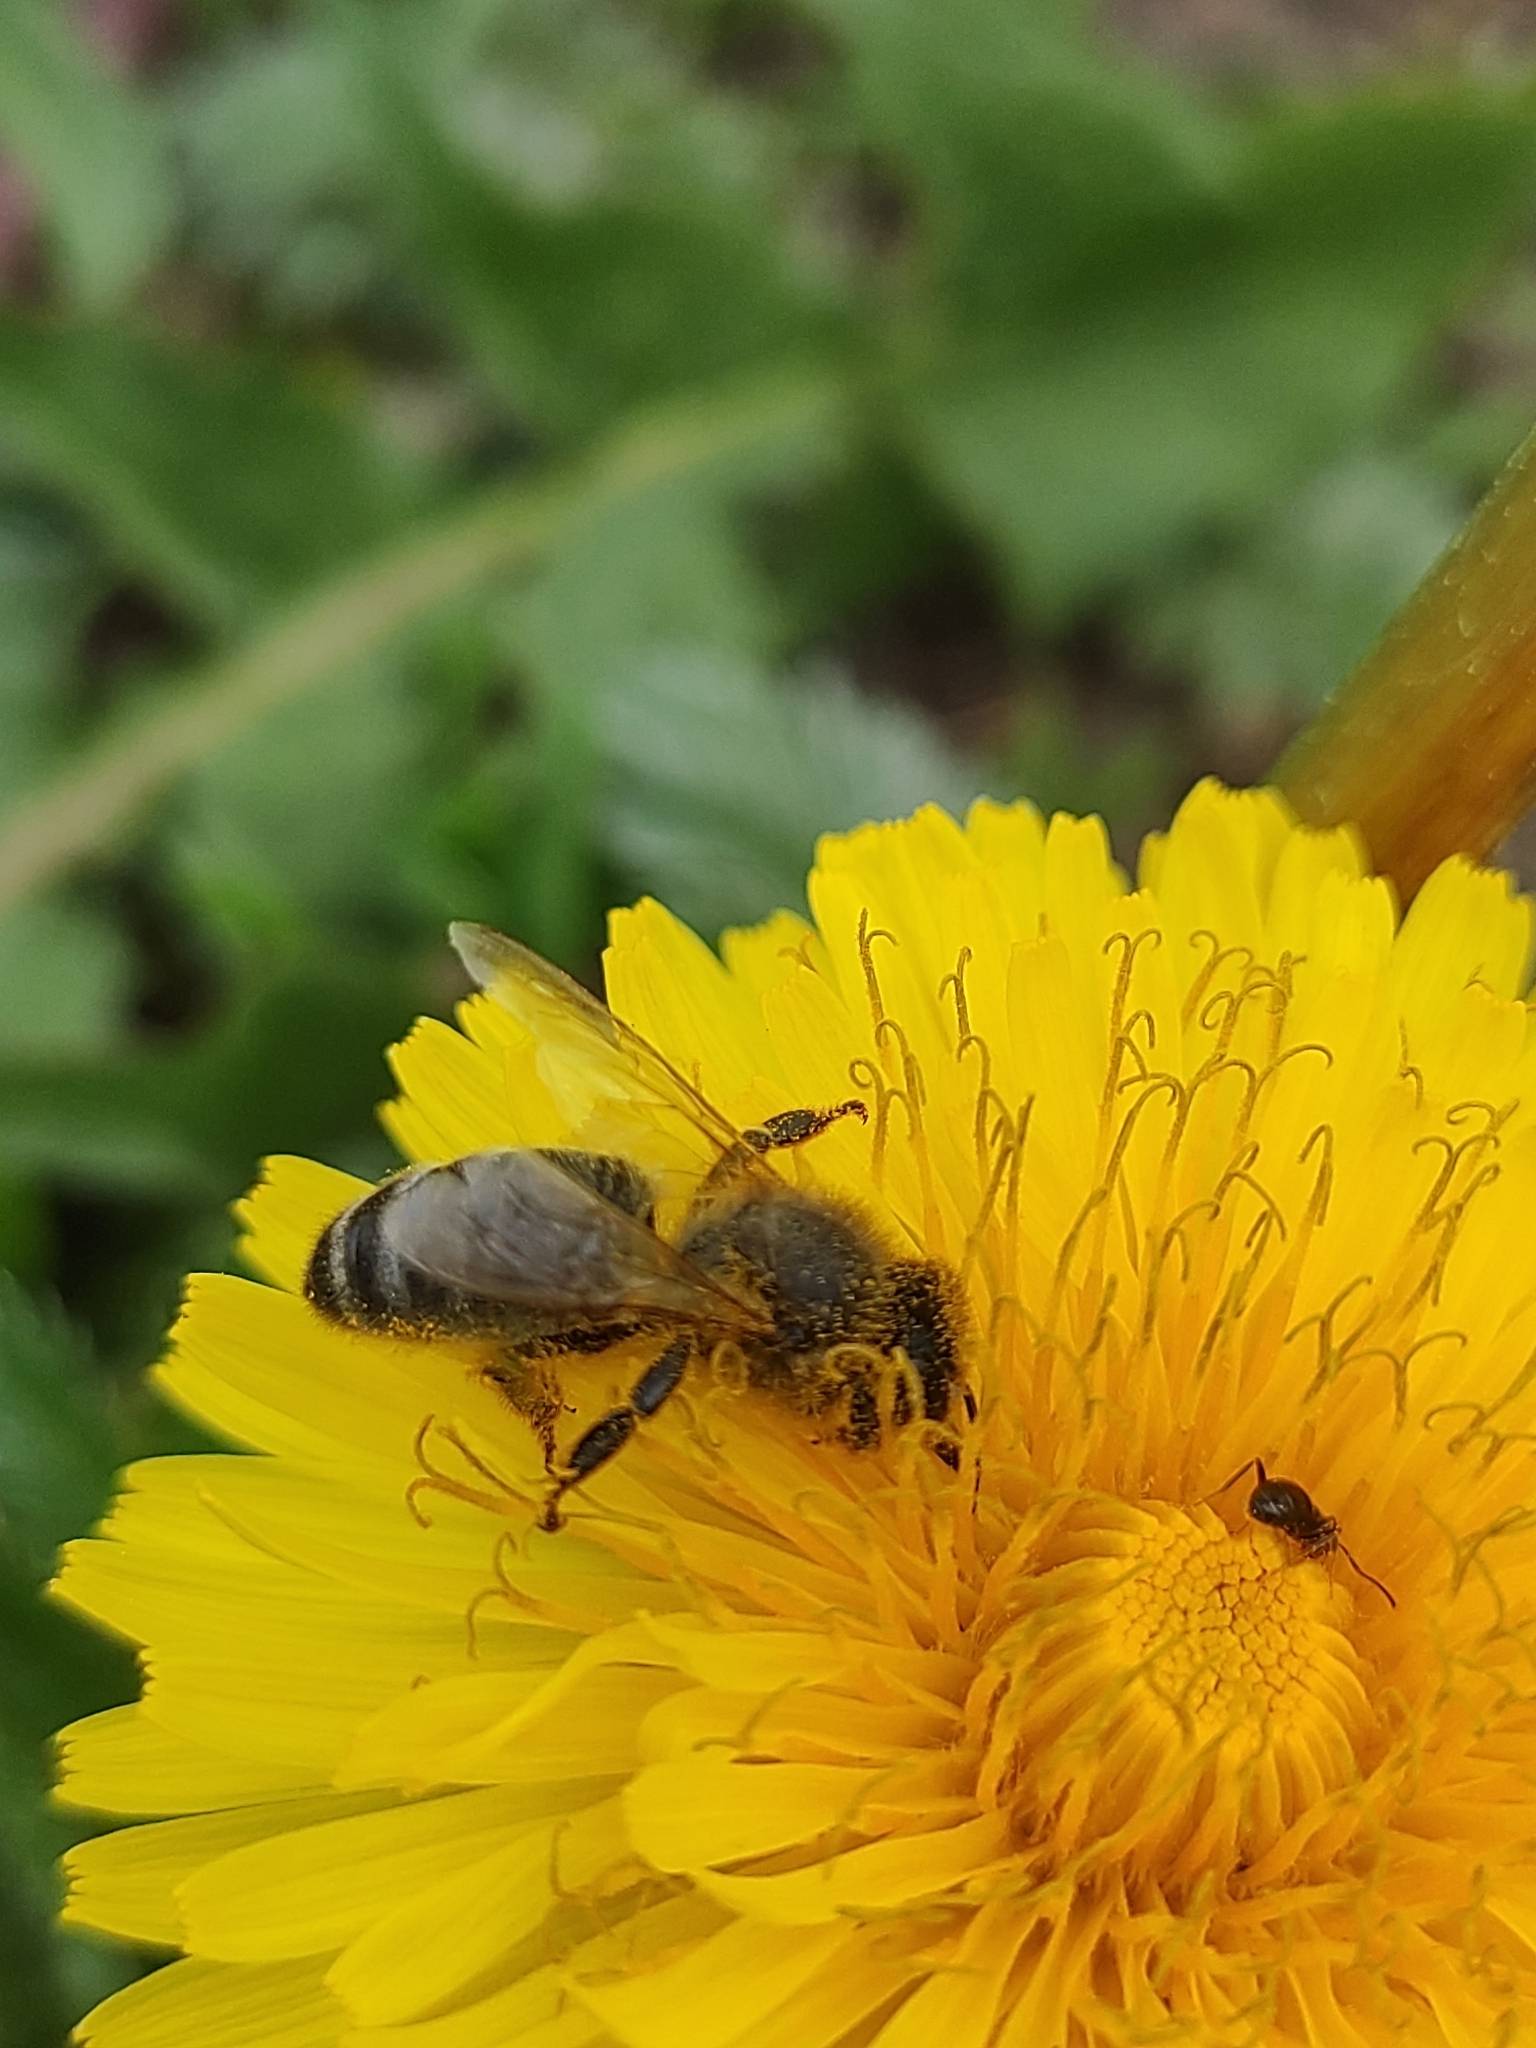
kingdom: Animalia
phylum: Arthropoda
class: Insecta
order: Hymenoptera
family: Apidae
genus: Apis
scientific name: Apis mellifera
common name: Honey bee
